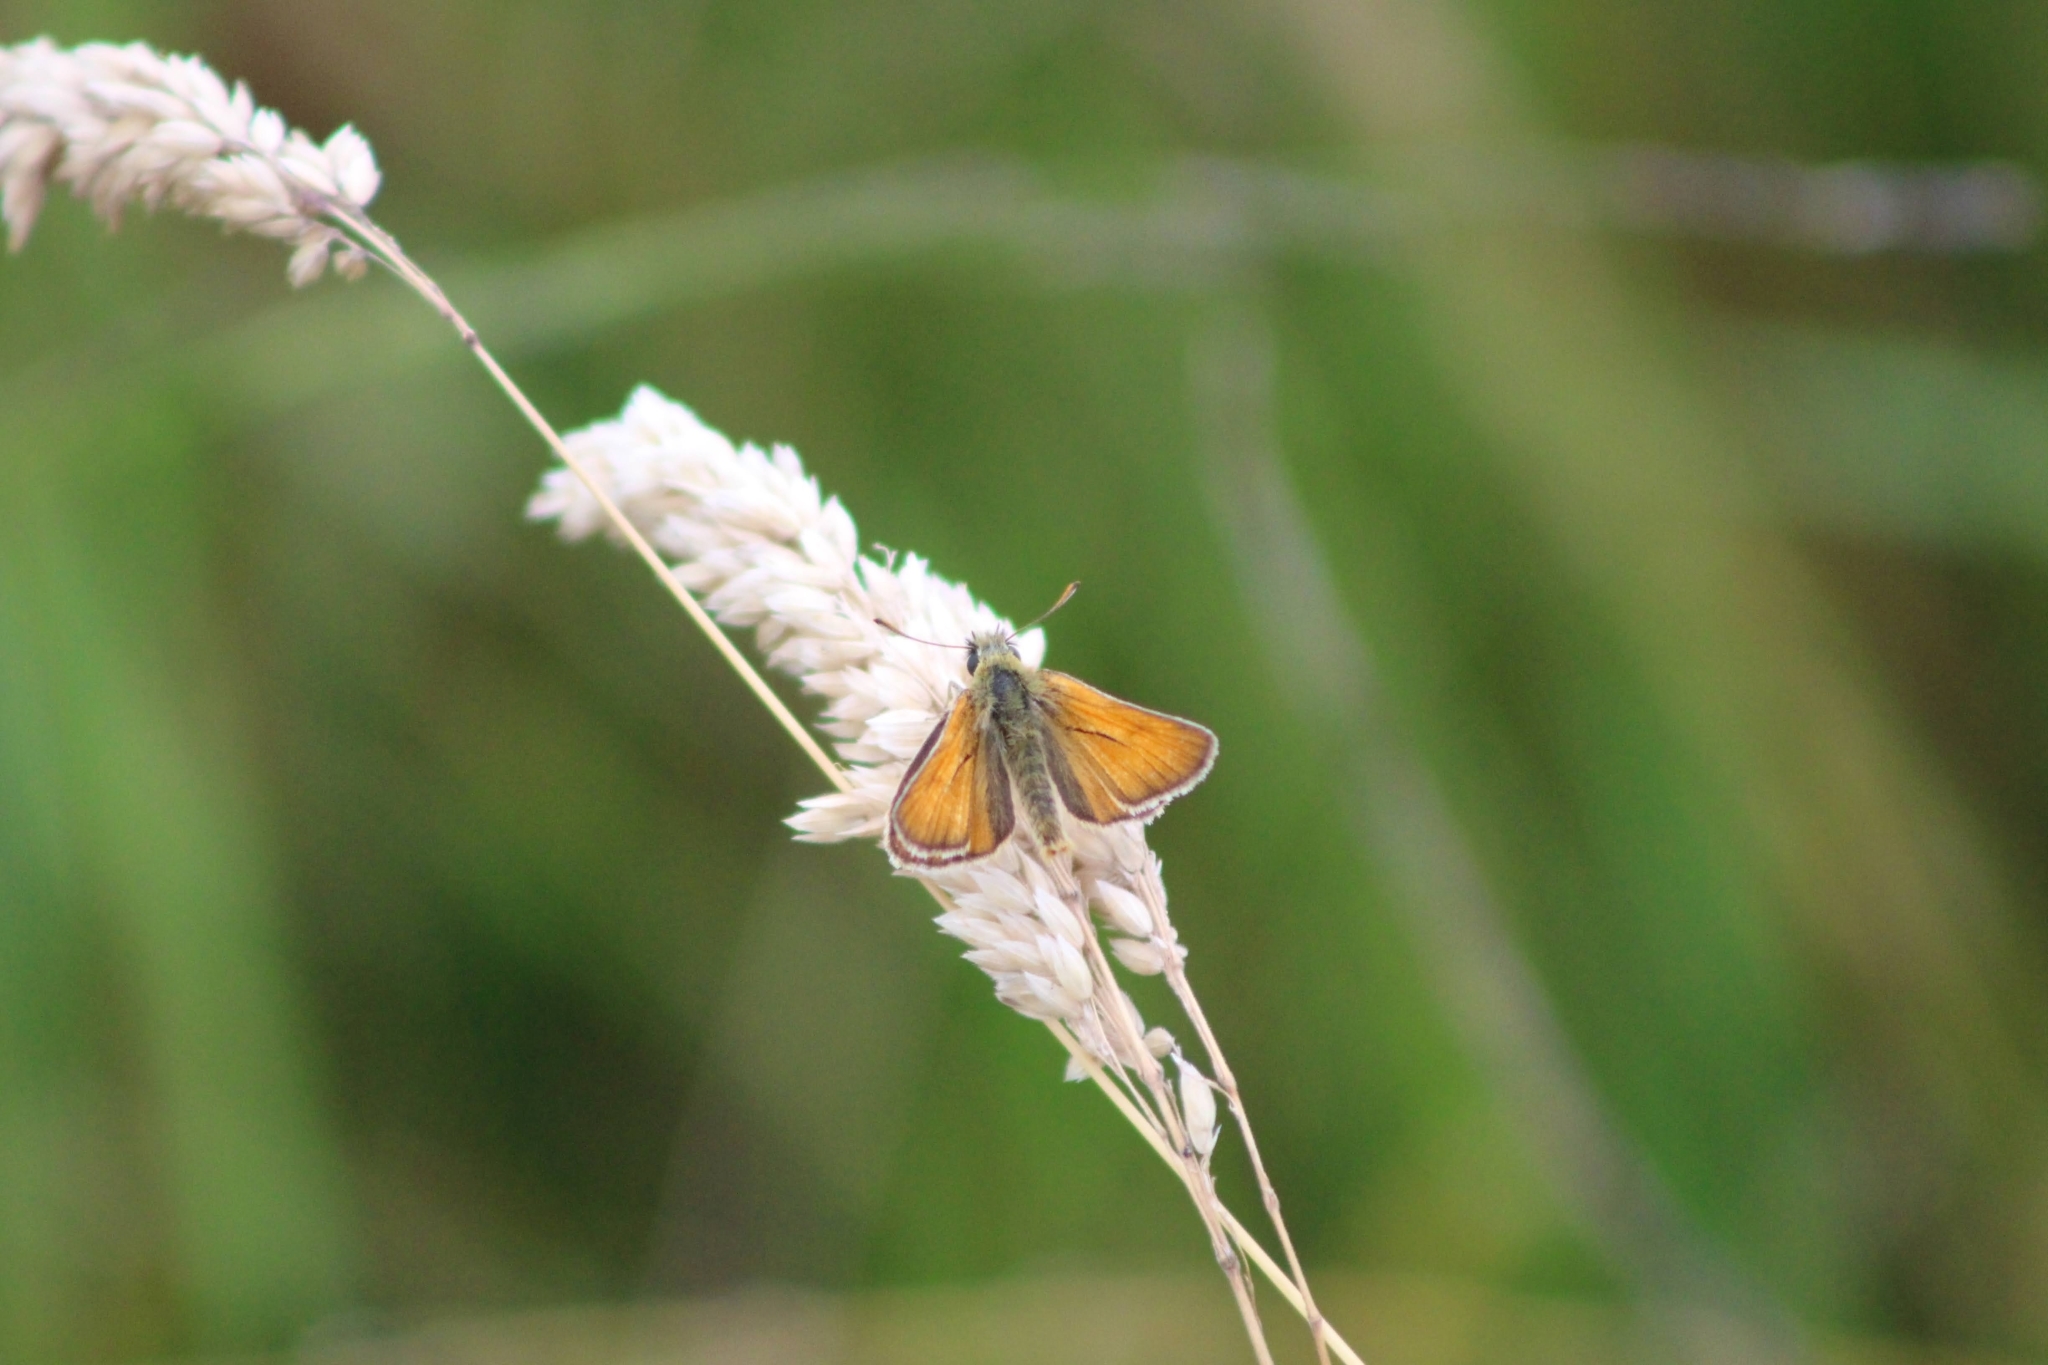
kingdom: Animalia
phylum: Arthropoda
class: Insecta
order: Lepidoptera
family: Hesperiidae
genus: Thymelicus
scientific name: Thymelicus sylvestris
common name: Small skipper
